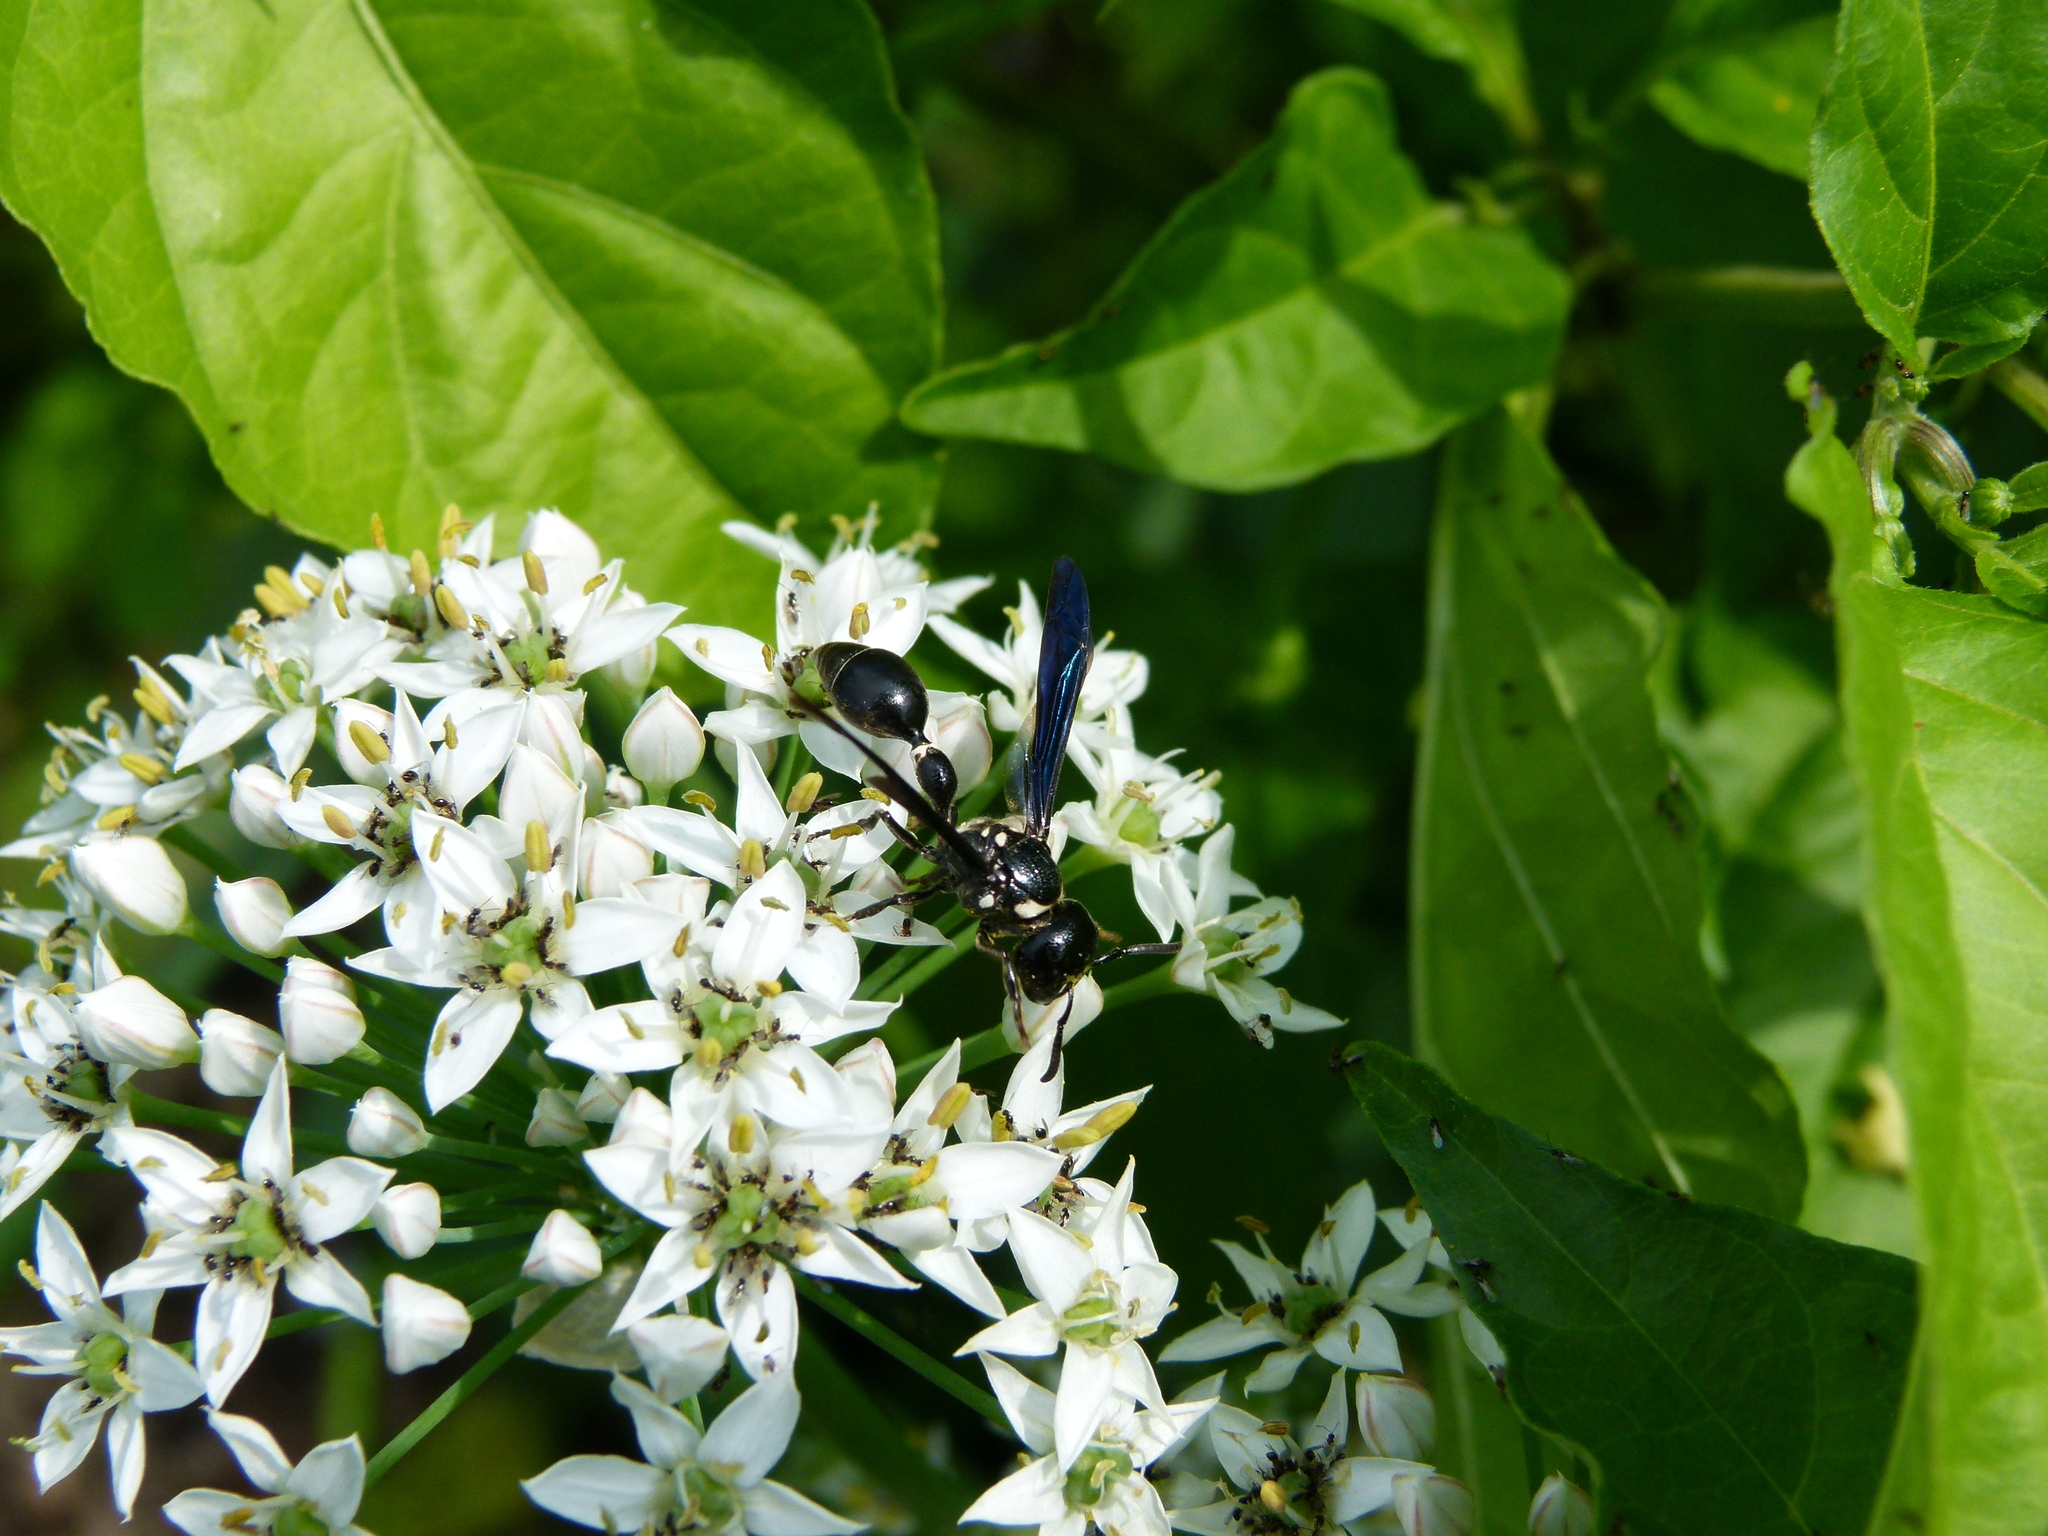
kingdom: Animalia
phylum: Arthropoda
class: Insecta
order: Hymenoptera
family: Eumenidae
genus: Zethus
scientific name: Zethus spinipes
